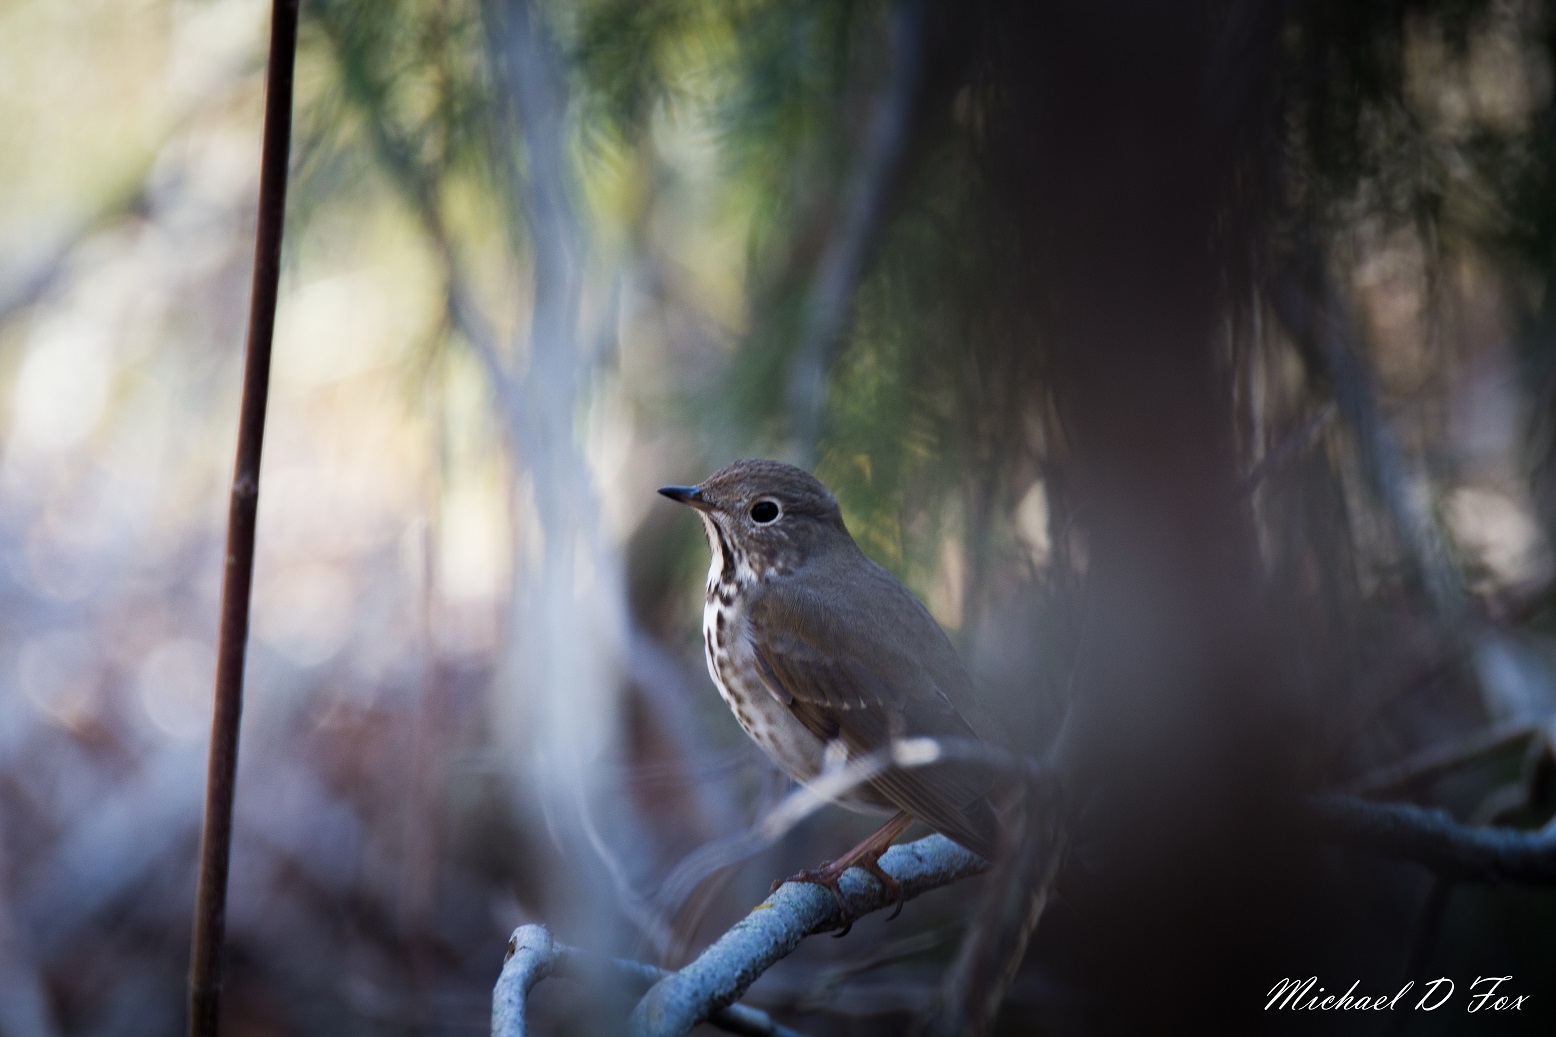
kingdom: Animalia
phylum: Chordata
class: Aves
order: Passeriformes
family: Turdidae
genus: Catharus
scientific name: Catharus guttatus
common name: Hermit thrush
